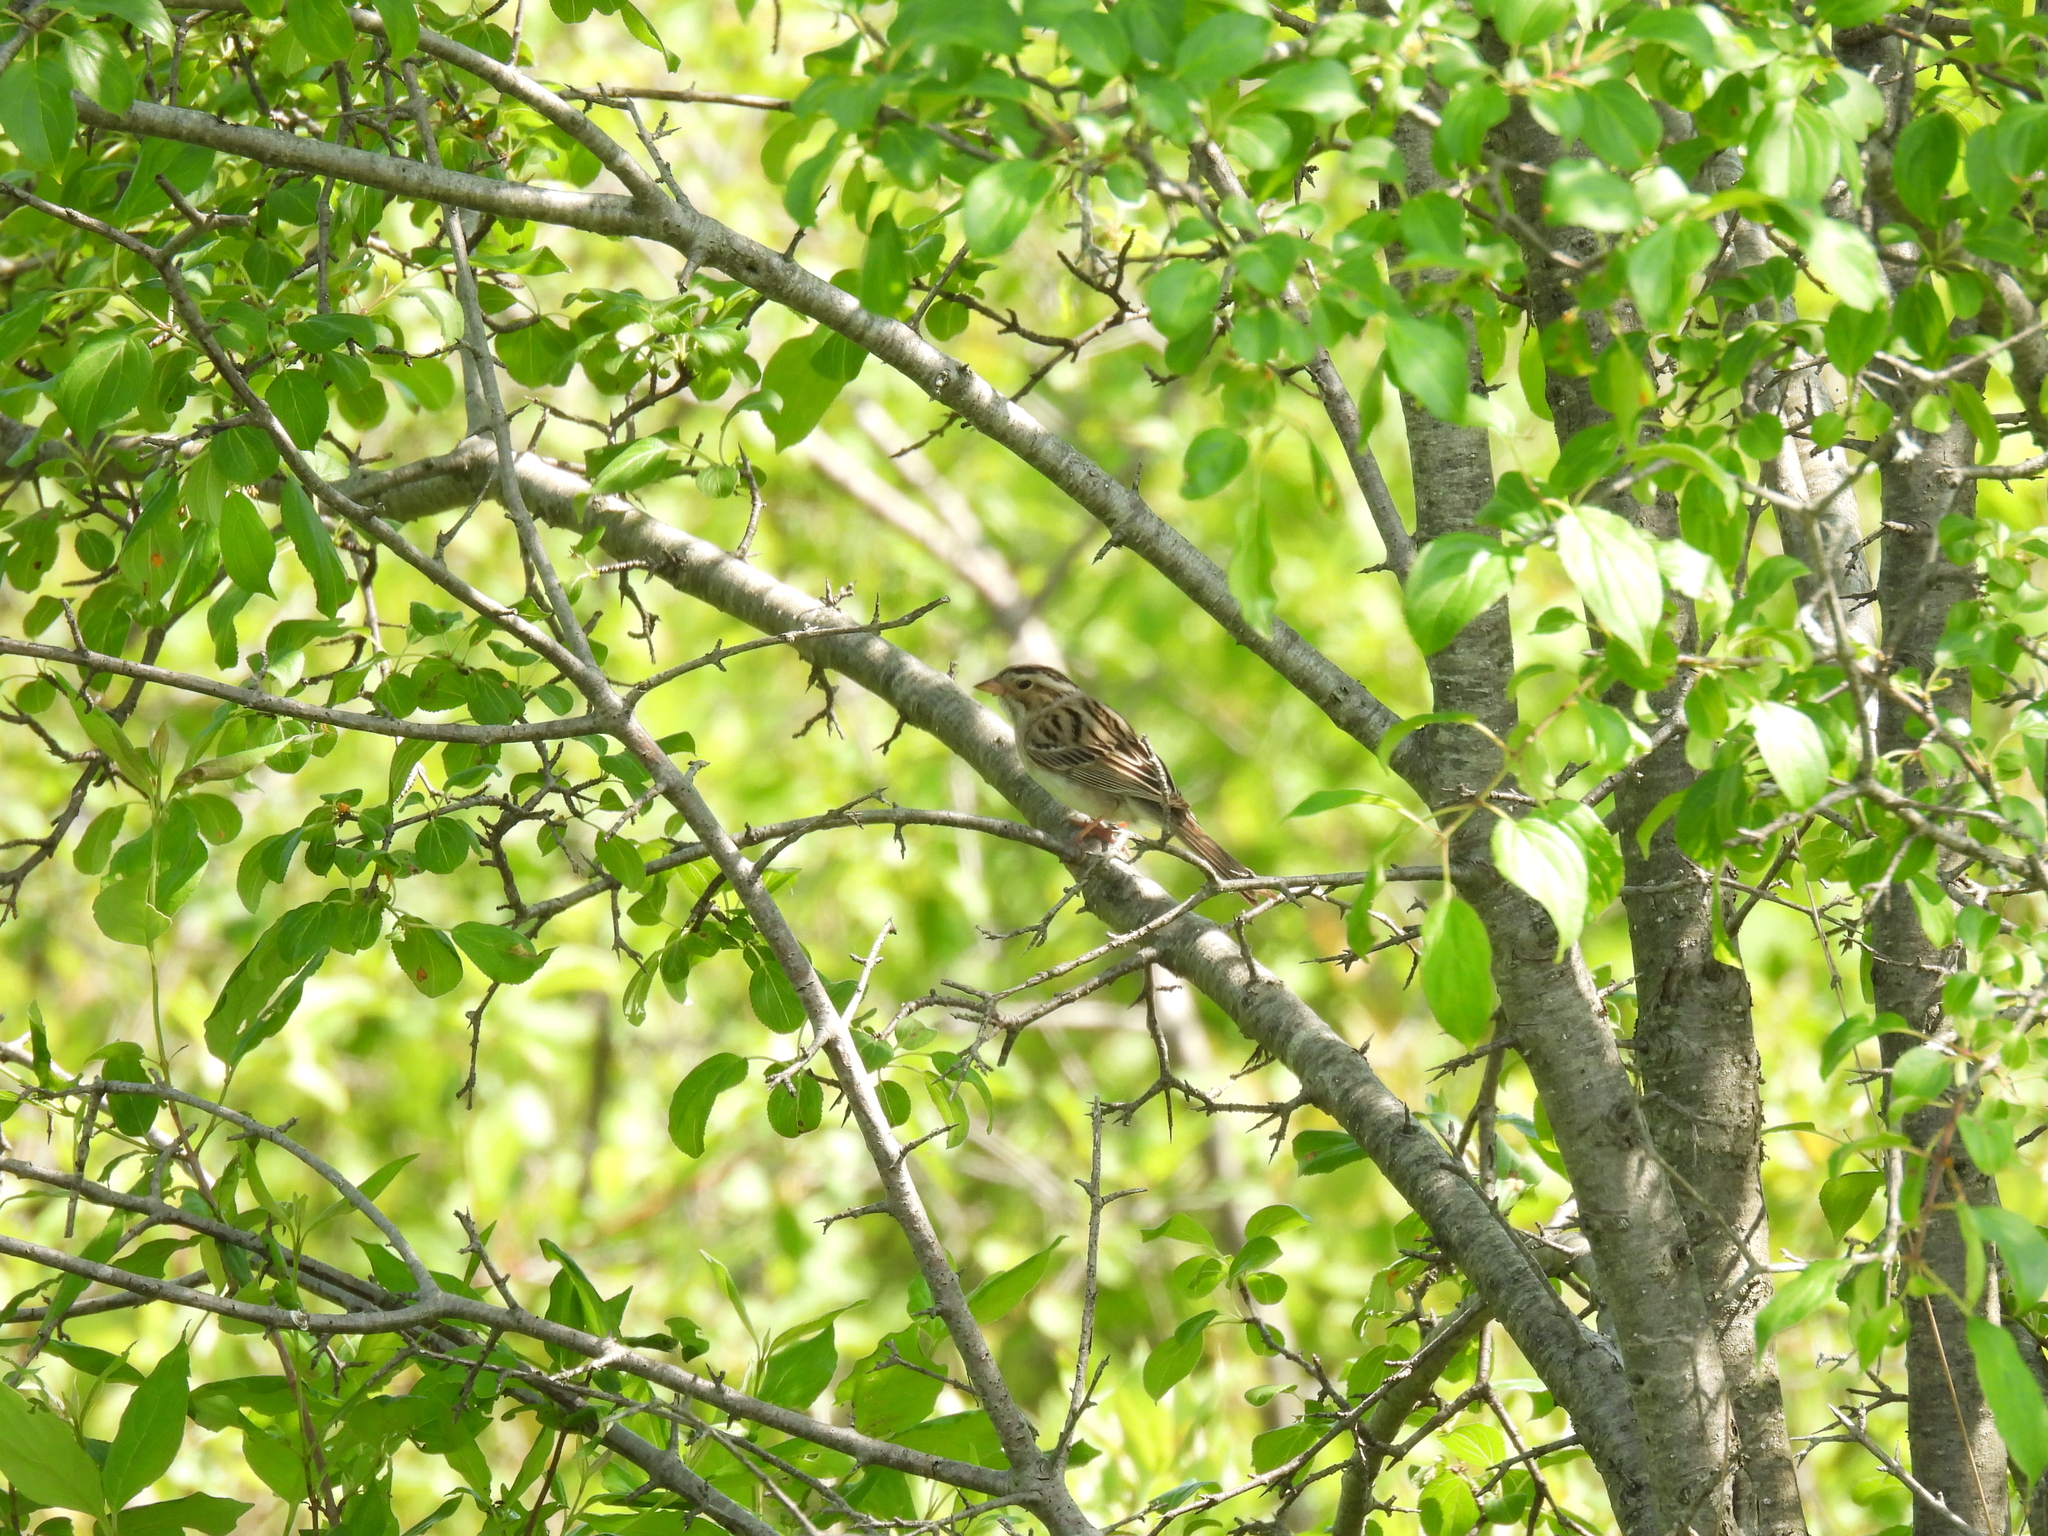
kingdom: Animalia
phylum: Chordata
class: Aves
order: Passeriformes
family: Passerellidae
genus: Spizella
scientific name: Spizella pallida
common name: Clay-colored sparrow
